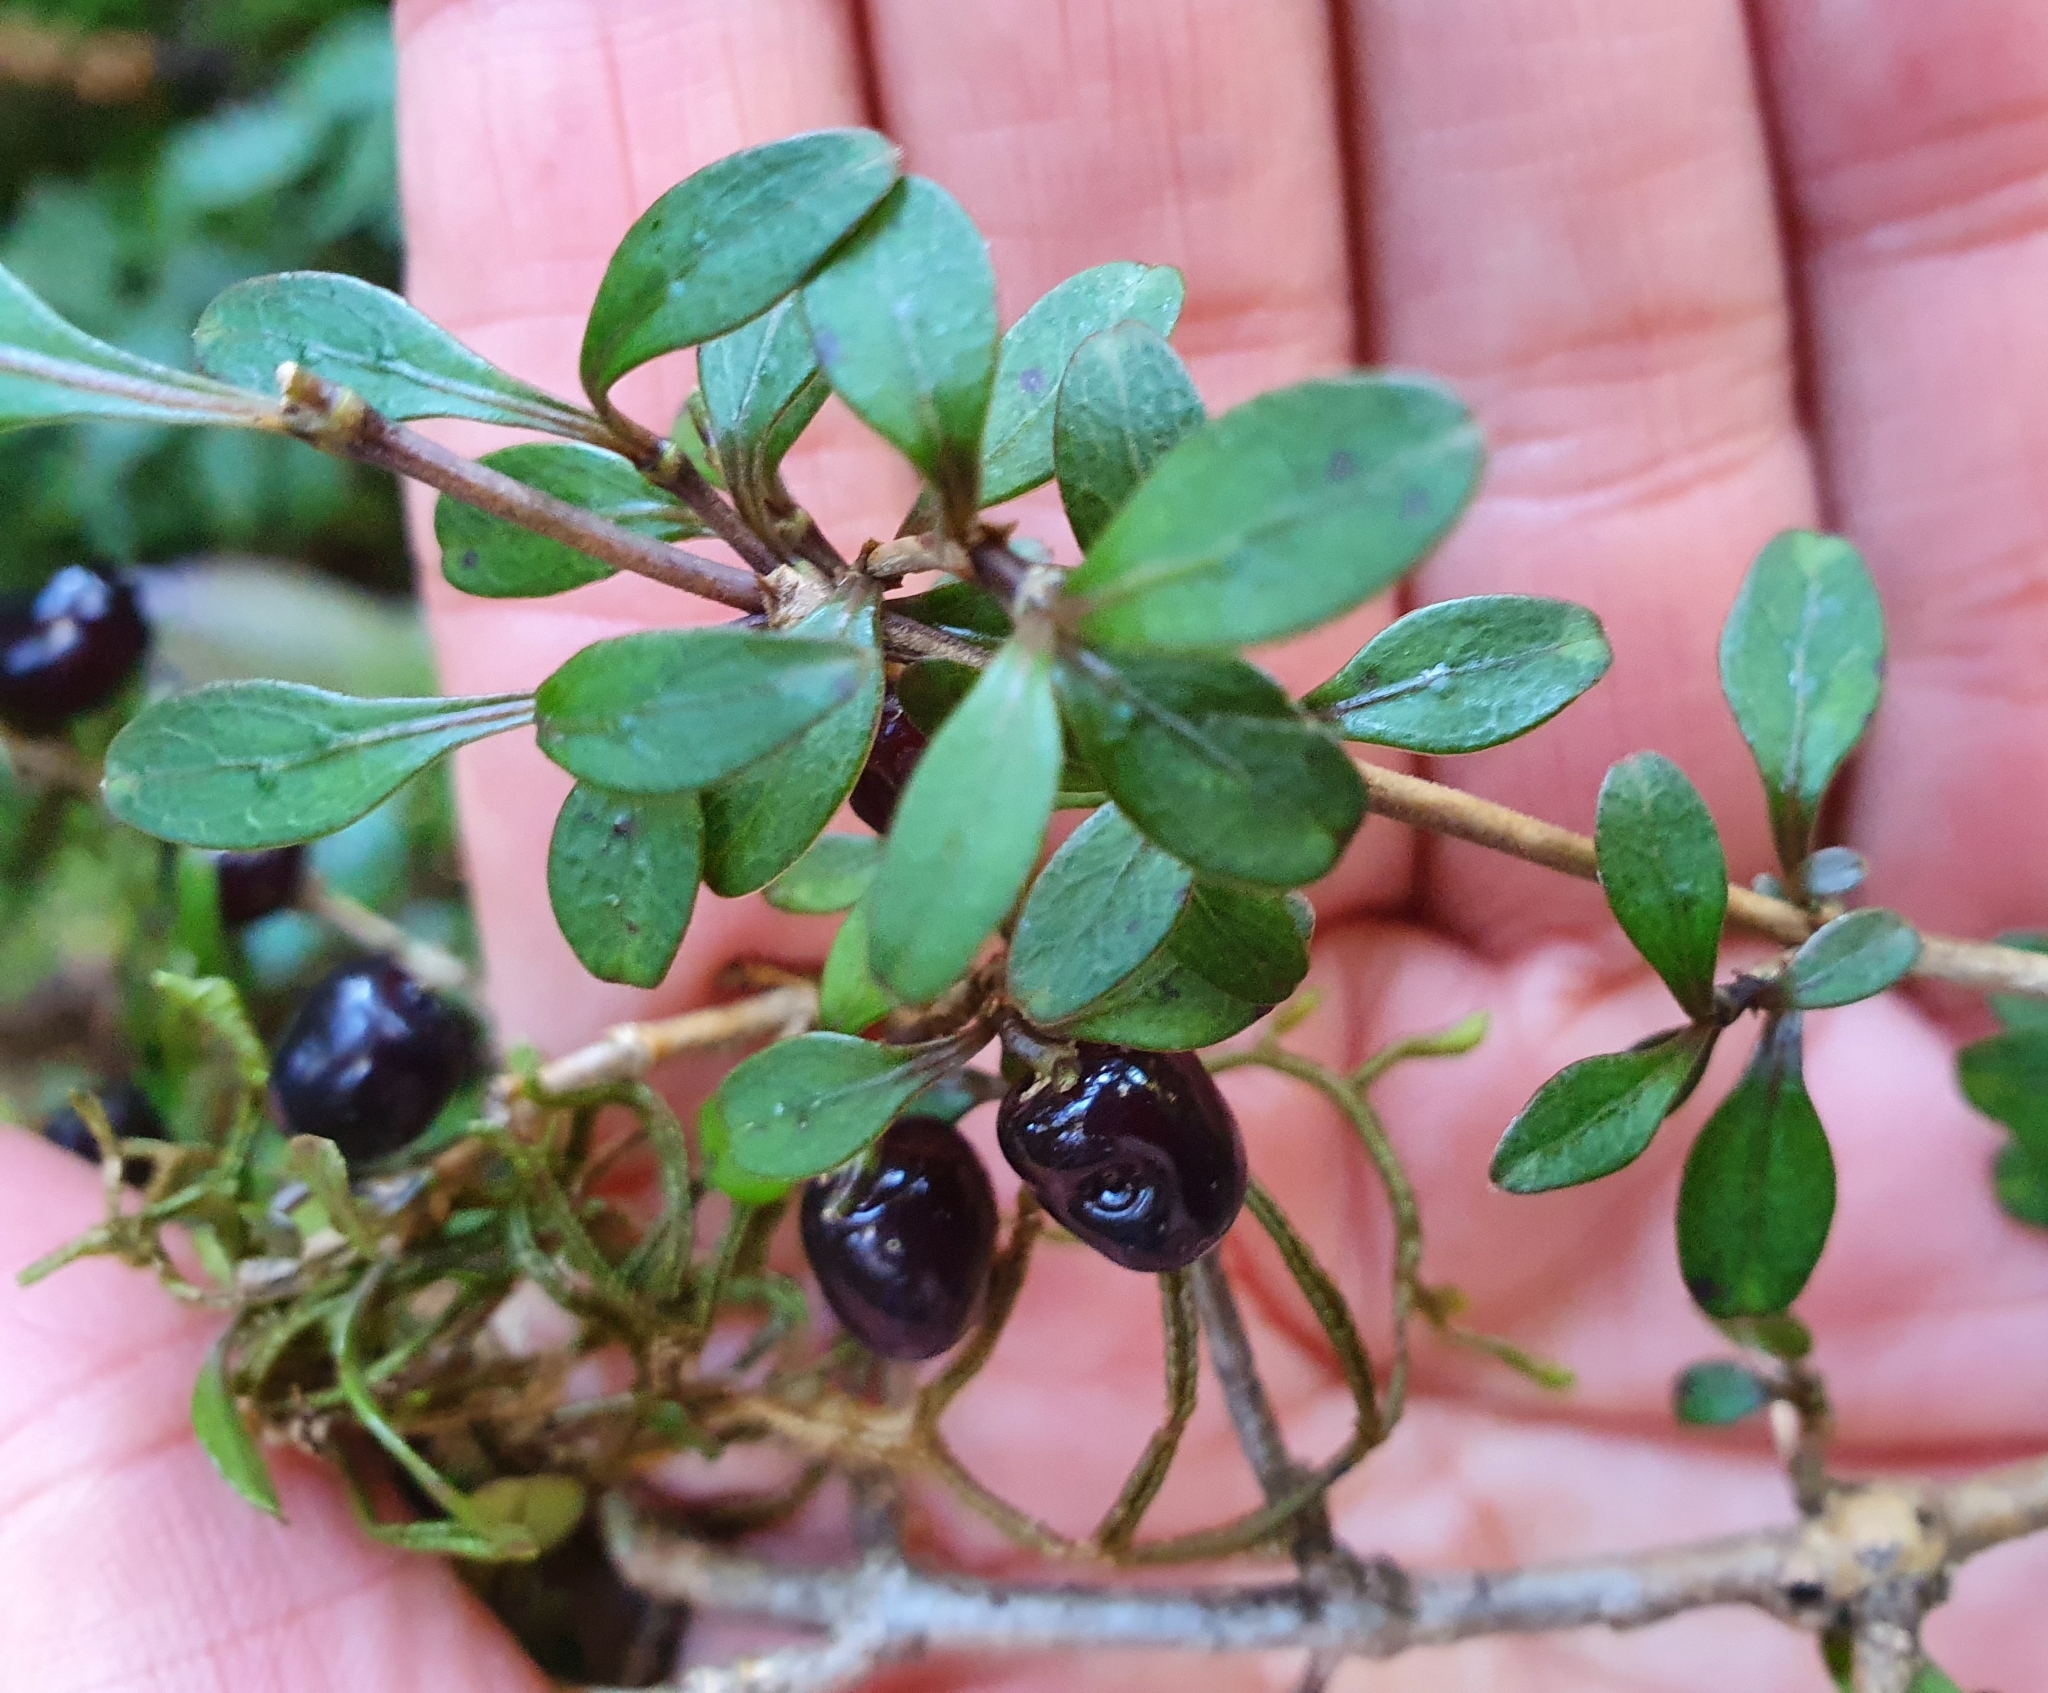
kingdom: Plantae
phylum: Tracheophyta
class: Magnoliopsida
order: Gentianales
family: Rubiaceae
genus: Coprosma
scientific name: Coprosma rhamnoides
